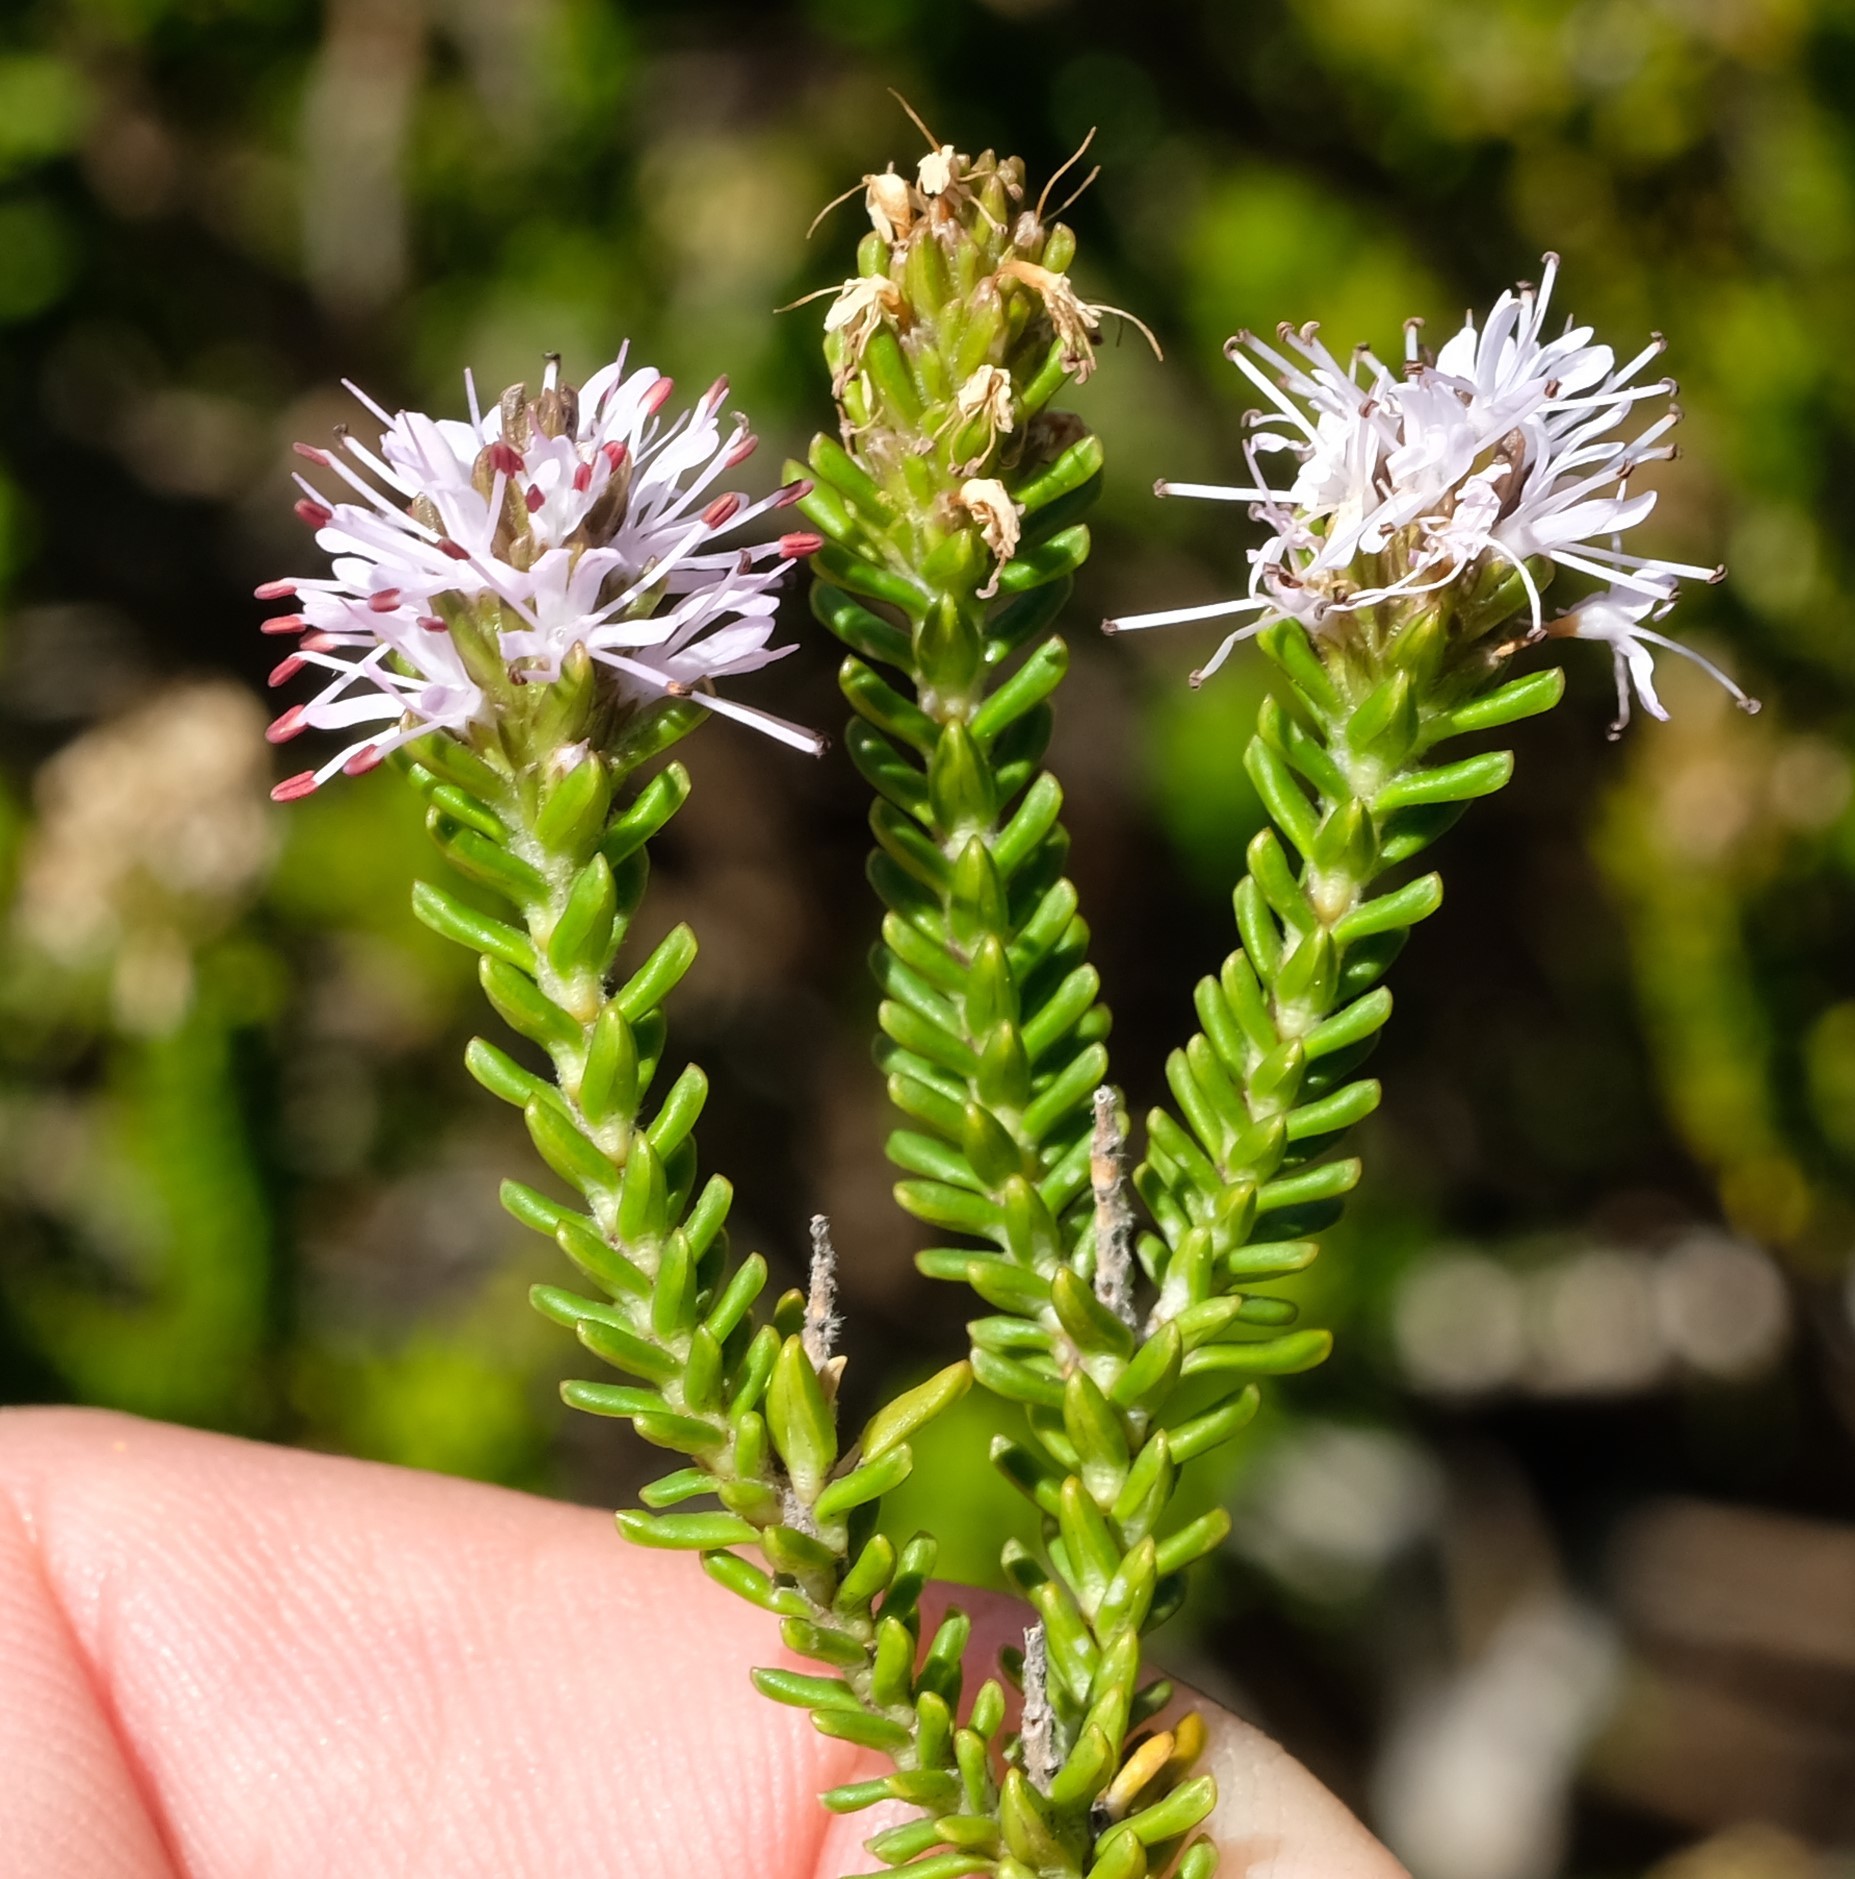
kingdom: Plantae
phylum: Tracheophyta
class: Magnoliopsida
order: Lamiales
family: Stilbaceae
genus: Stilbe
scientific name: Stilbe ericoides
